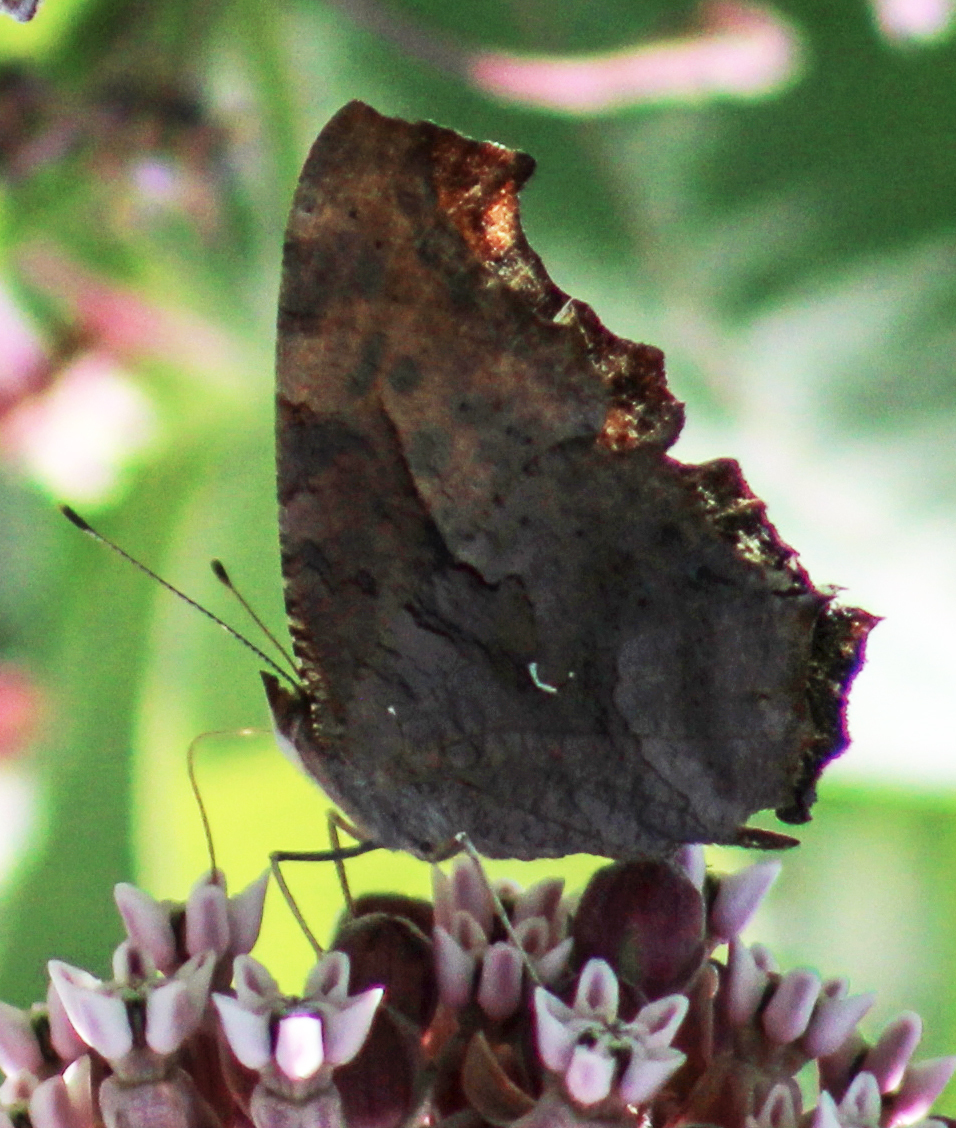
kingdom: Animalia
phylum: Arthropoda
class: Insecta
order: Lepidoptera
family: Nymphalidae
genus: Polygonia
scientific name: Polygonia interrogationis
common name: Question mark
